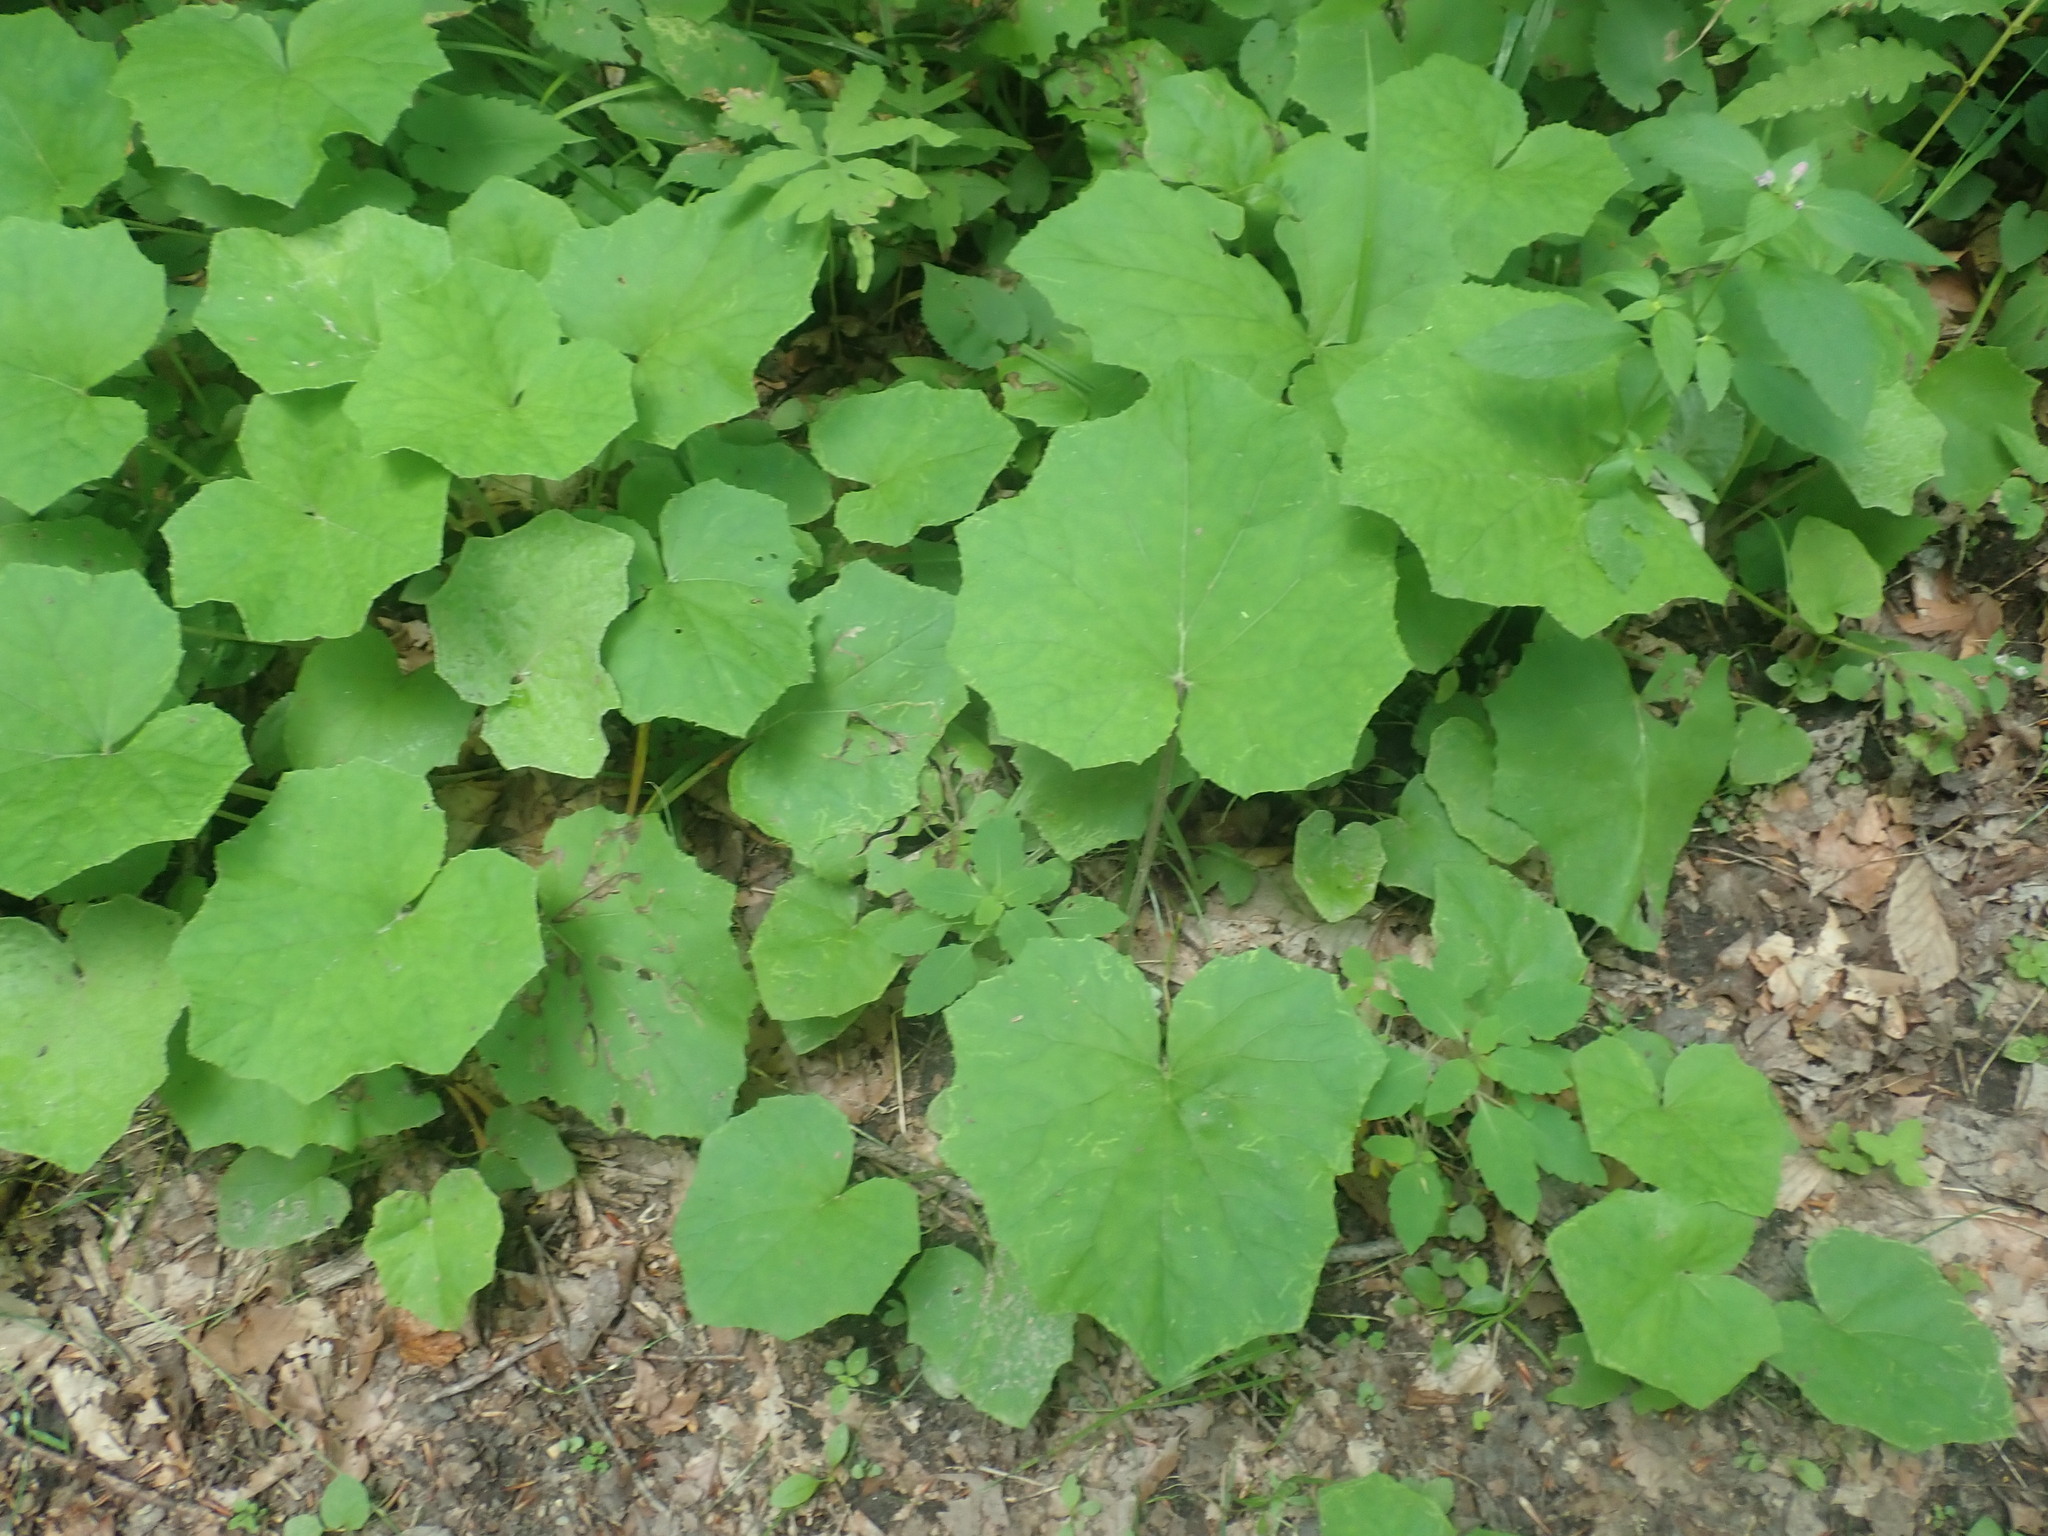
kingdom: Plantae
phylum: Tracheophyta
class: Magnoliopsida
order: Asterales
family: Asteraceae
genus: Tussilago
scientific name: Tussilago farfara
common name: Coltsfoot
